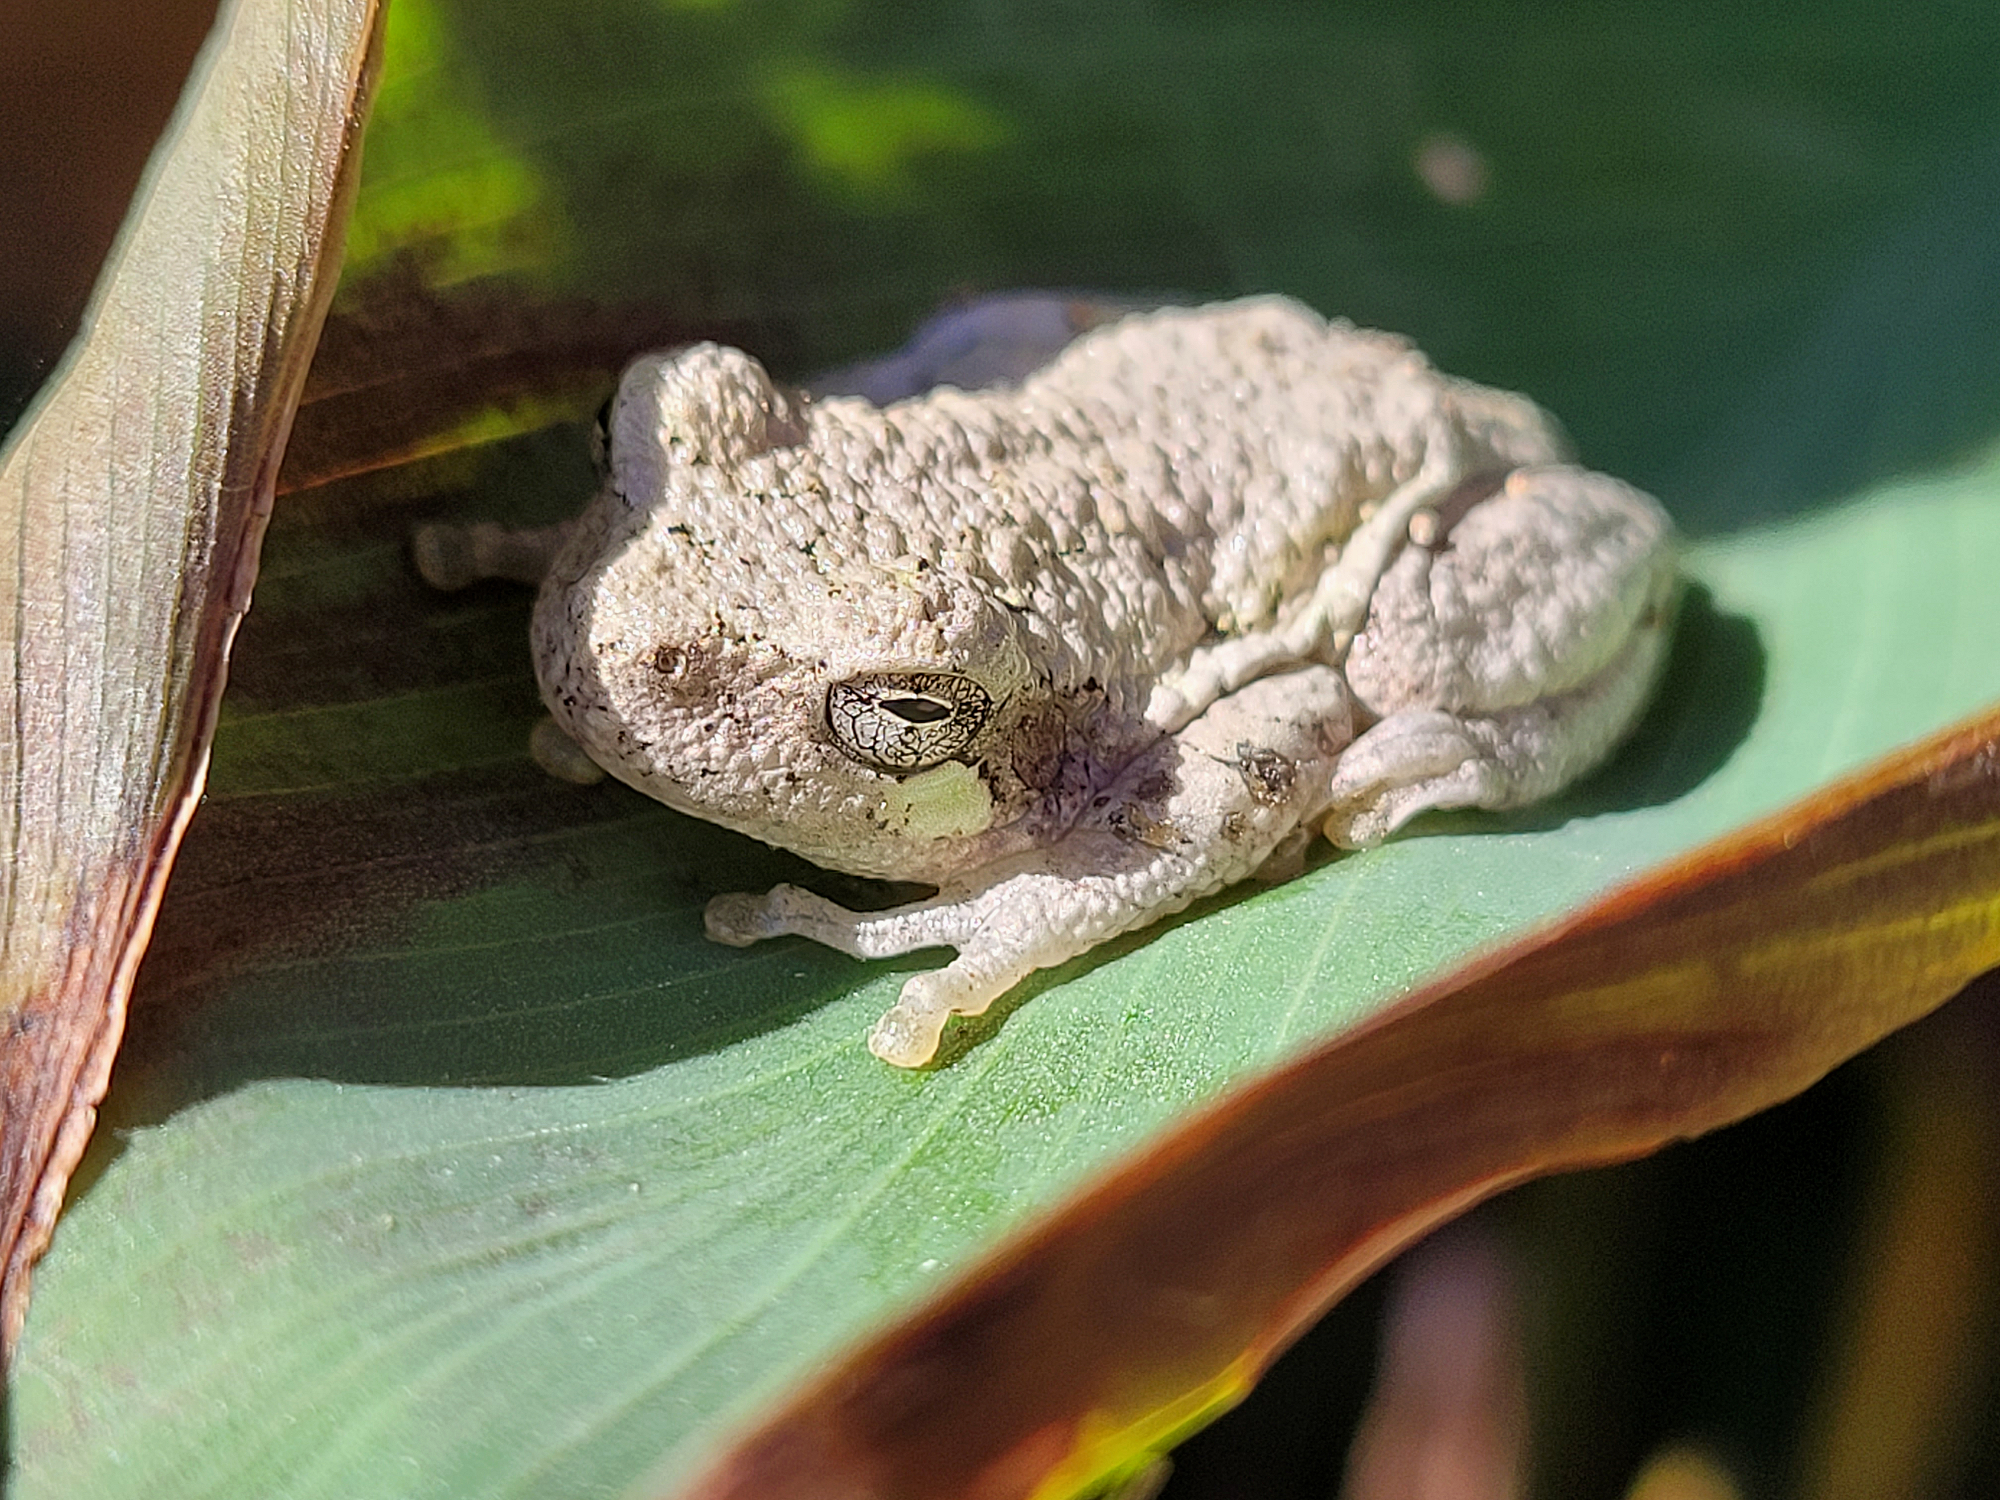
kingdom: Animalia
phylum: Chordata
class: Amphibia
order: Anura
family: Hylidae
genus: Dryophytes
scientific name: Dryophytes chrysoscelis
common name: Cope's gray treefrog
